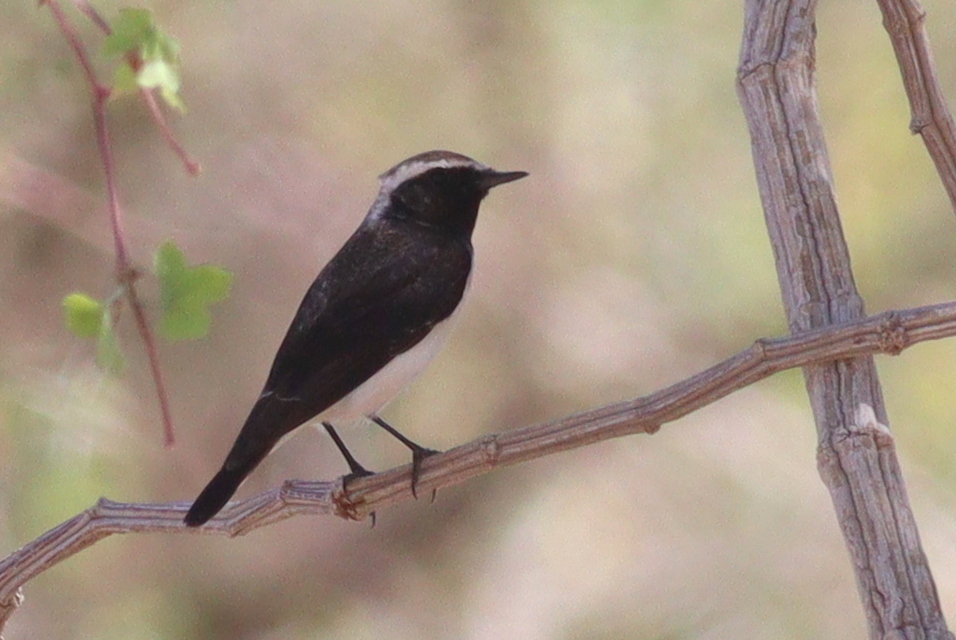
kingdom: Animalia
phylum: Chordata
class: Aves
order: Passeriformes
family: Muscicapidae
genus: Oenanthe
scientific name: Oenanthe pleschanka
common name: Pied wheatear
